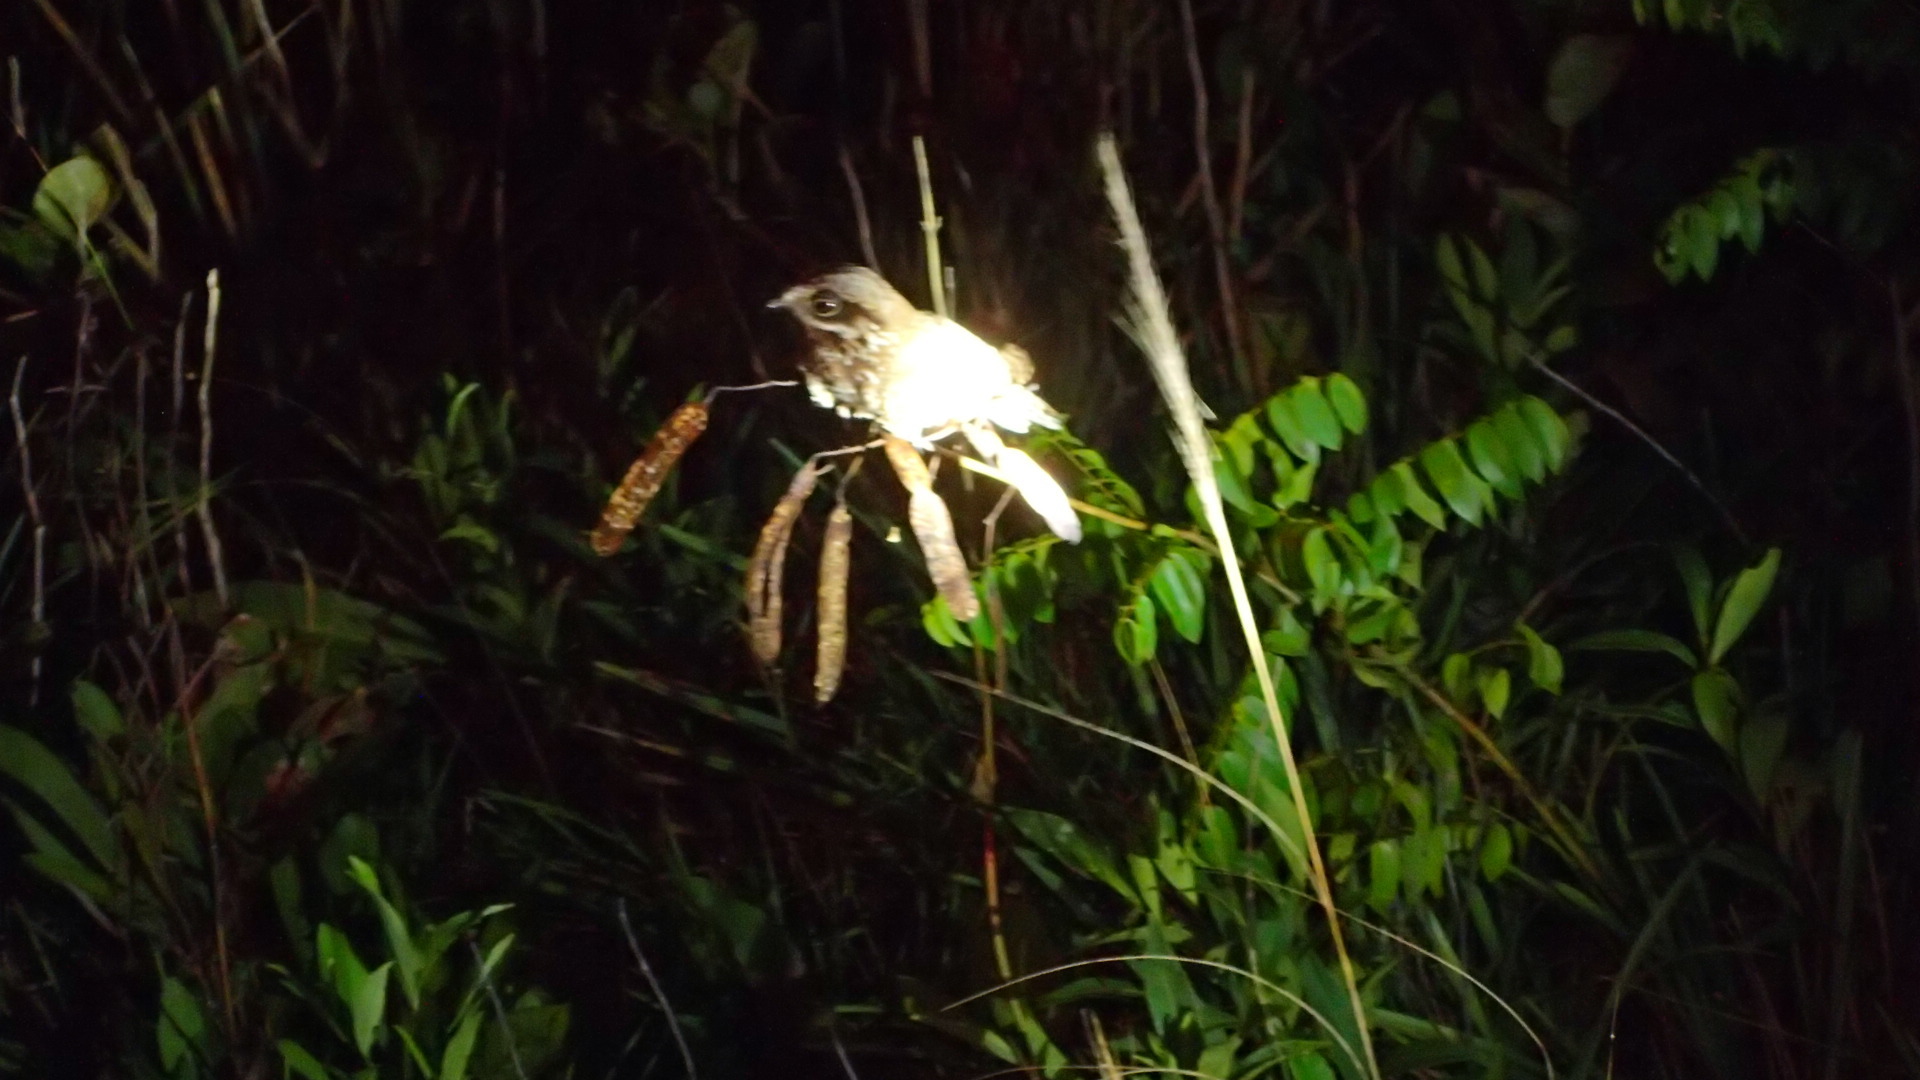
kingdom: Animalia
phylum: Chordata
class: Aves
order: Caprimulgiformes
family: Caprimulgidae
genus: Eleothreptus
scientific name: Eleothreptus candicans
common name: White-winged nightjar
